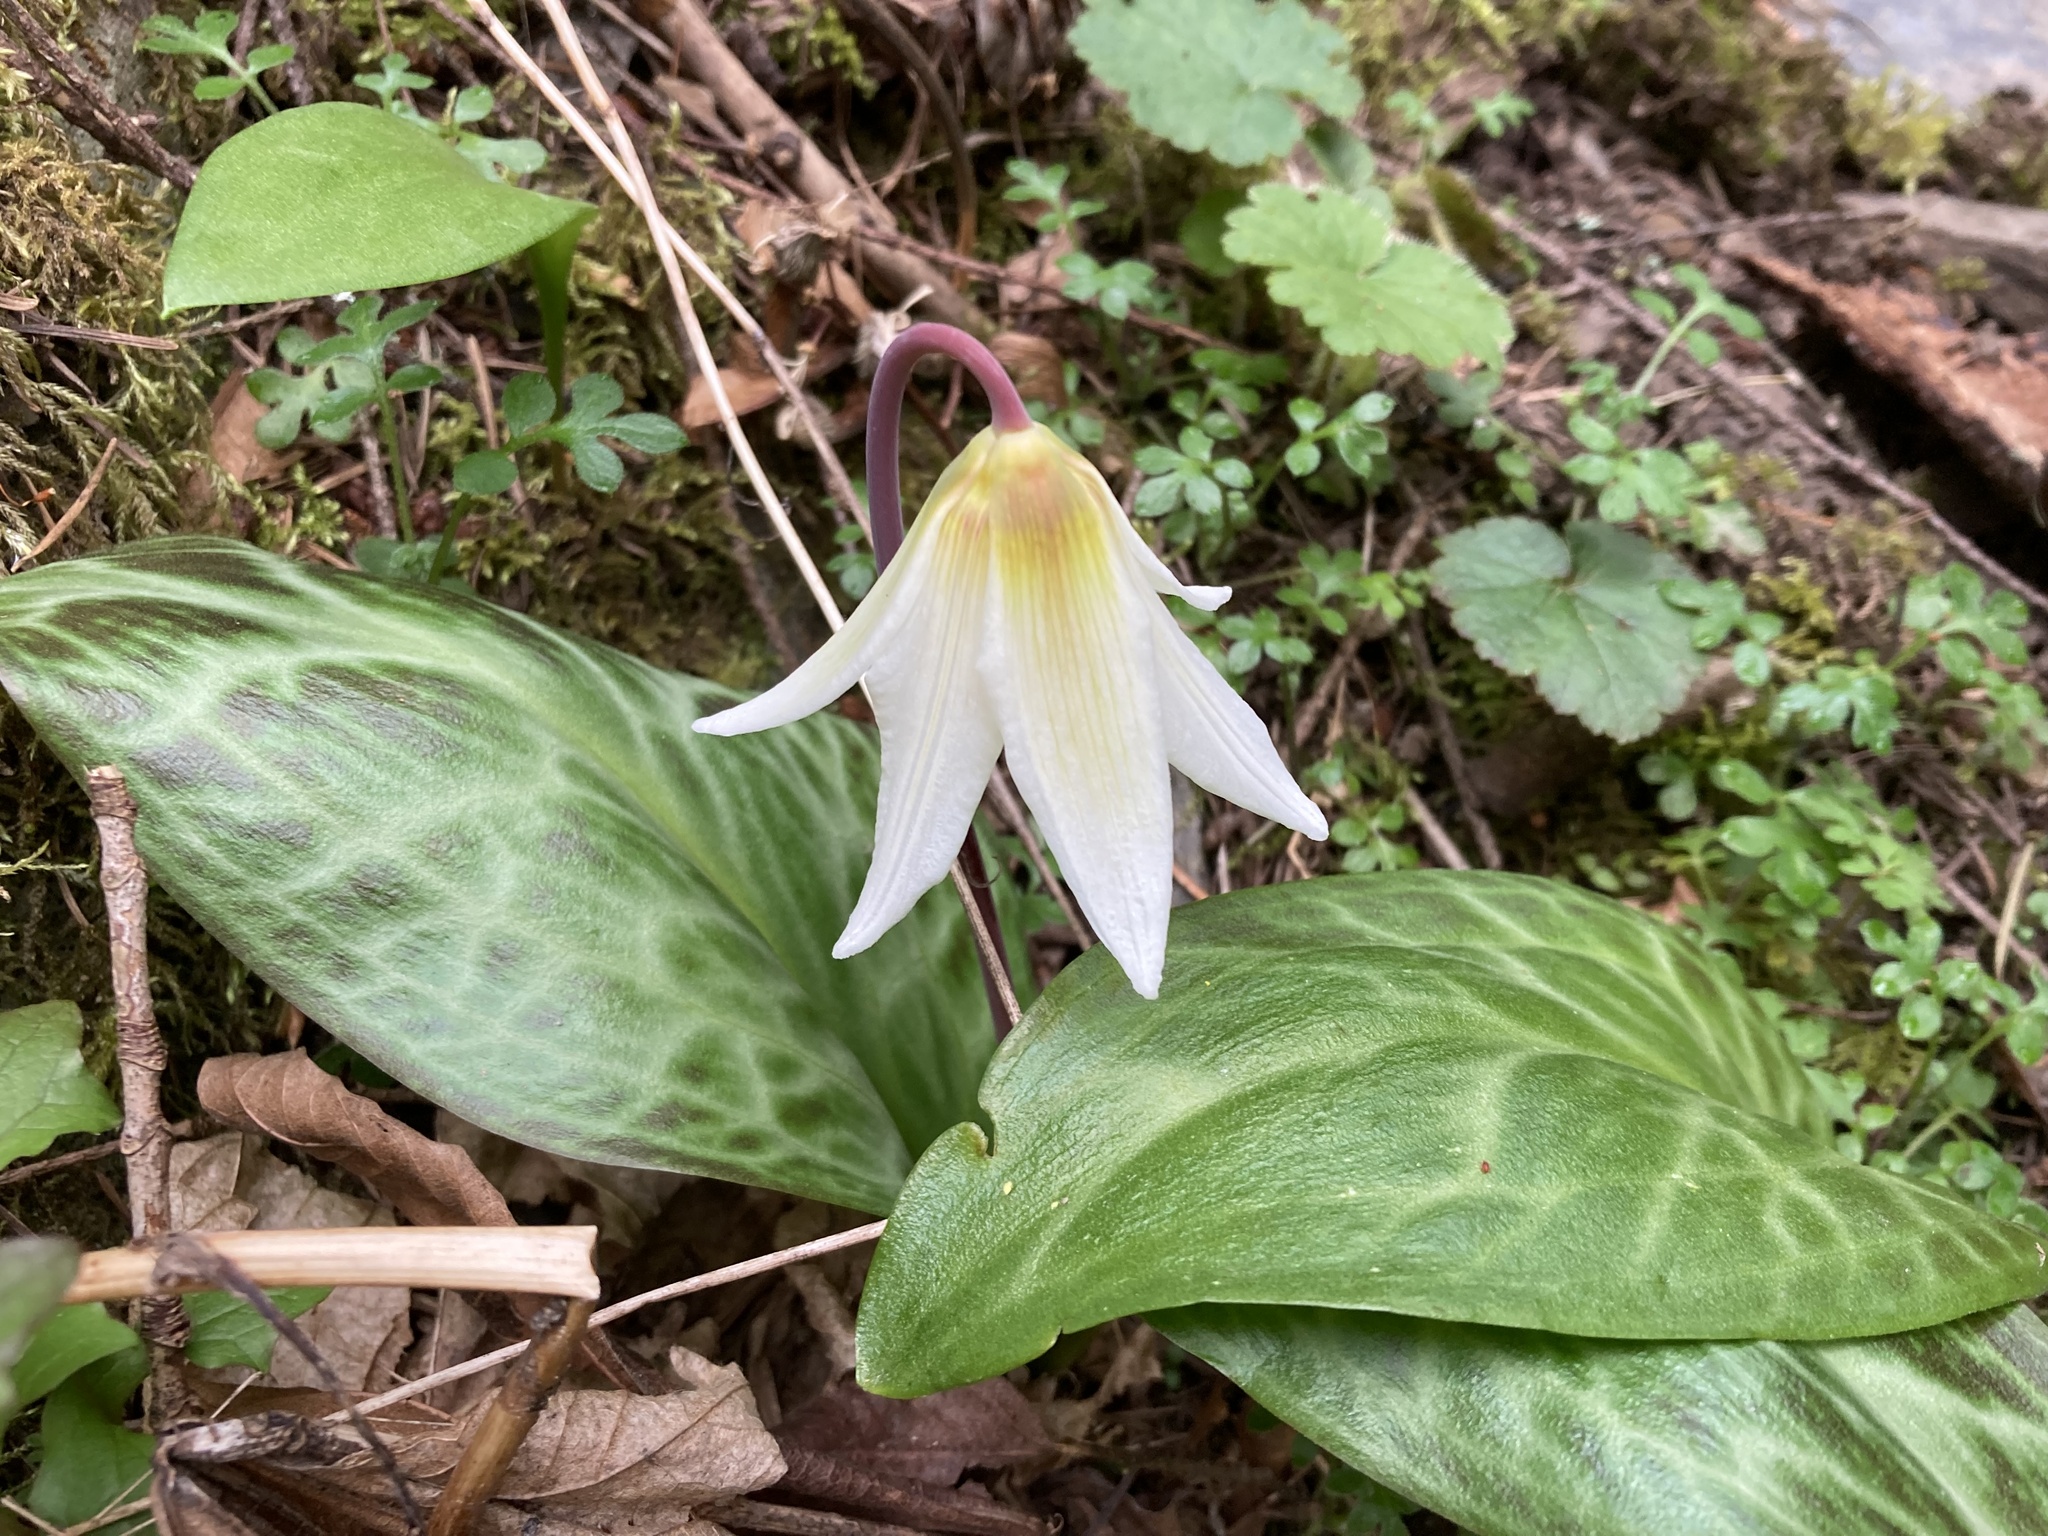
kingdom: Plantae
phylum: Tracheophyta
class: Liliopsida
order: Liliales
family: Liliaceae
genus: Erythronium
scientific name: Erythronium oregonum
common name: Giant adder's-tongue
